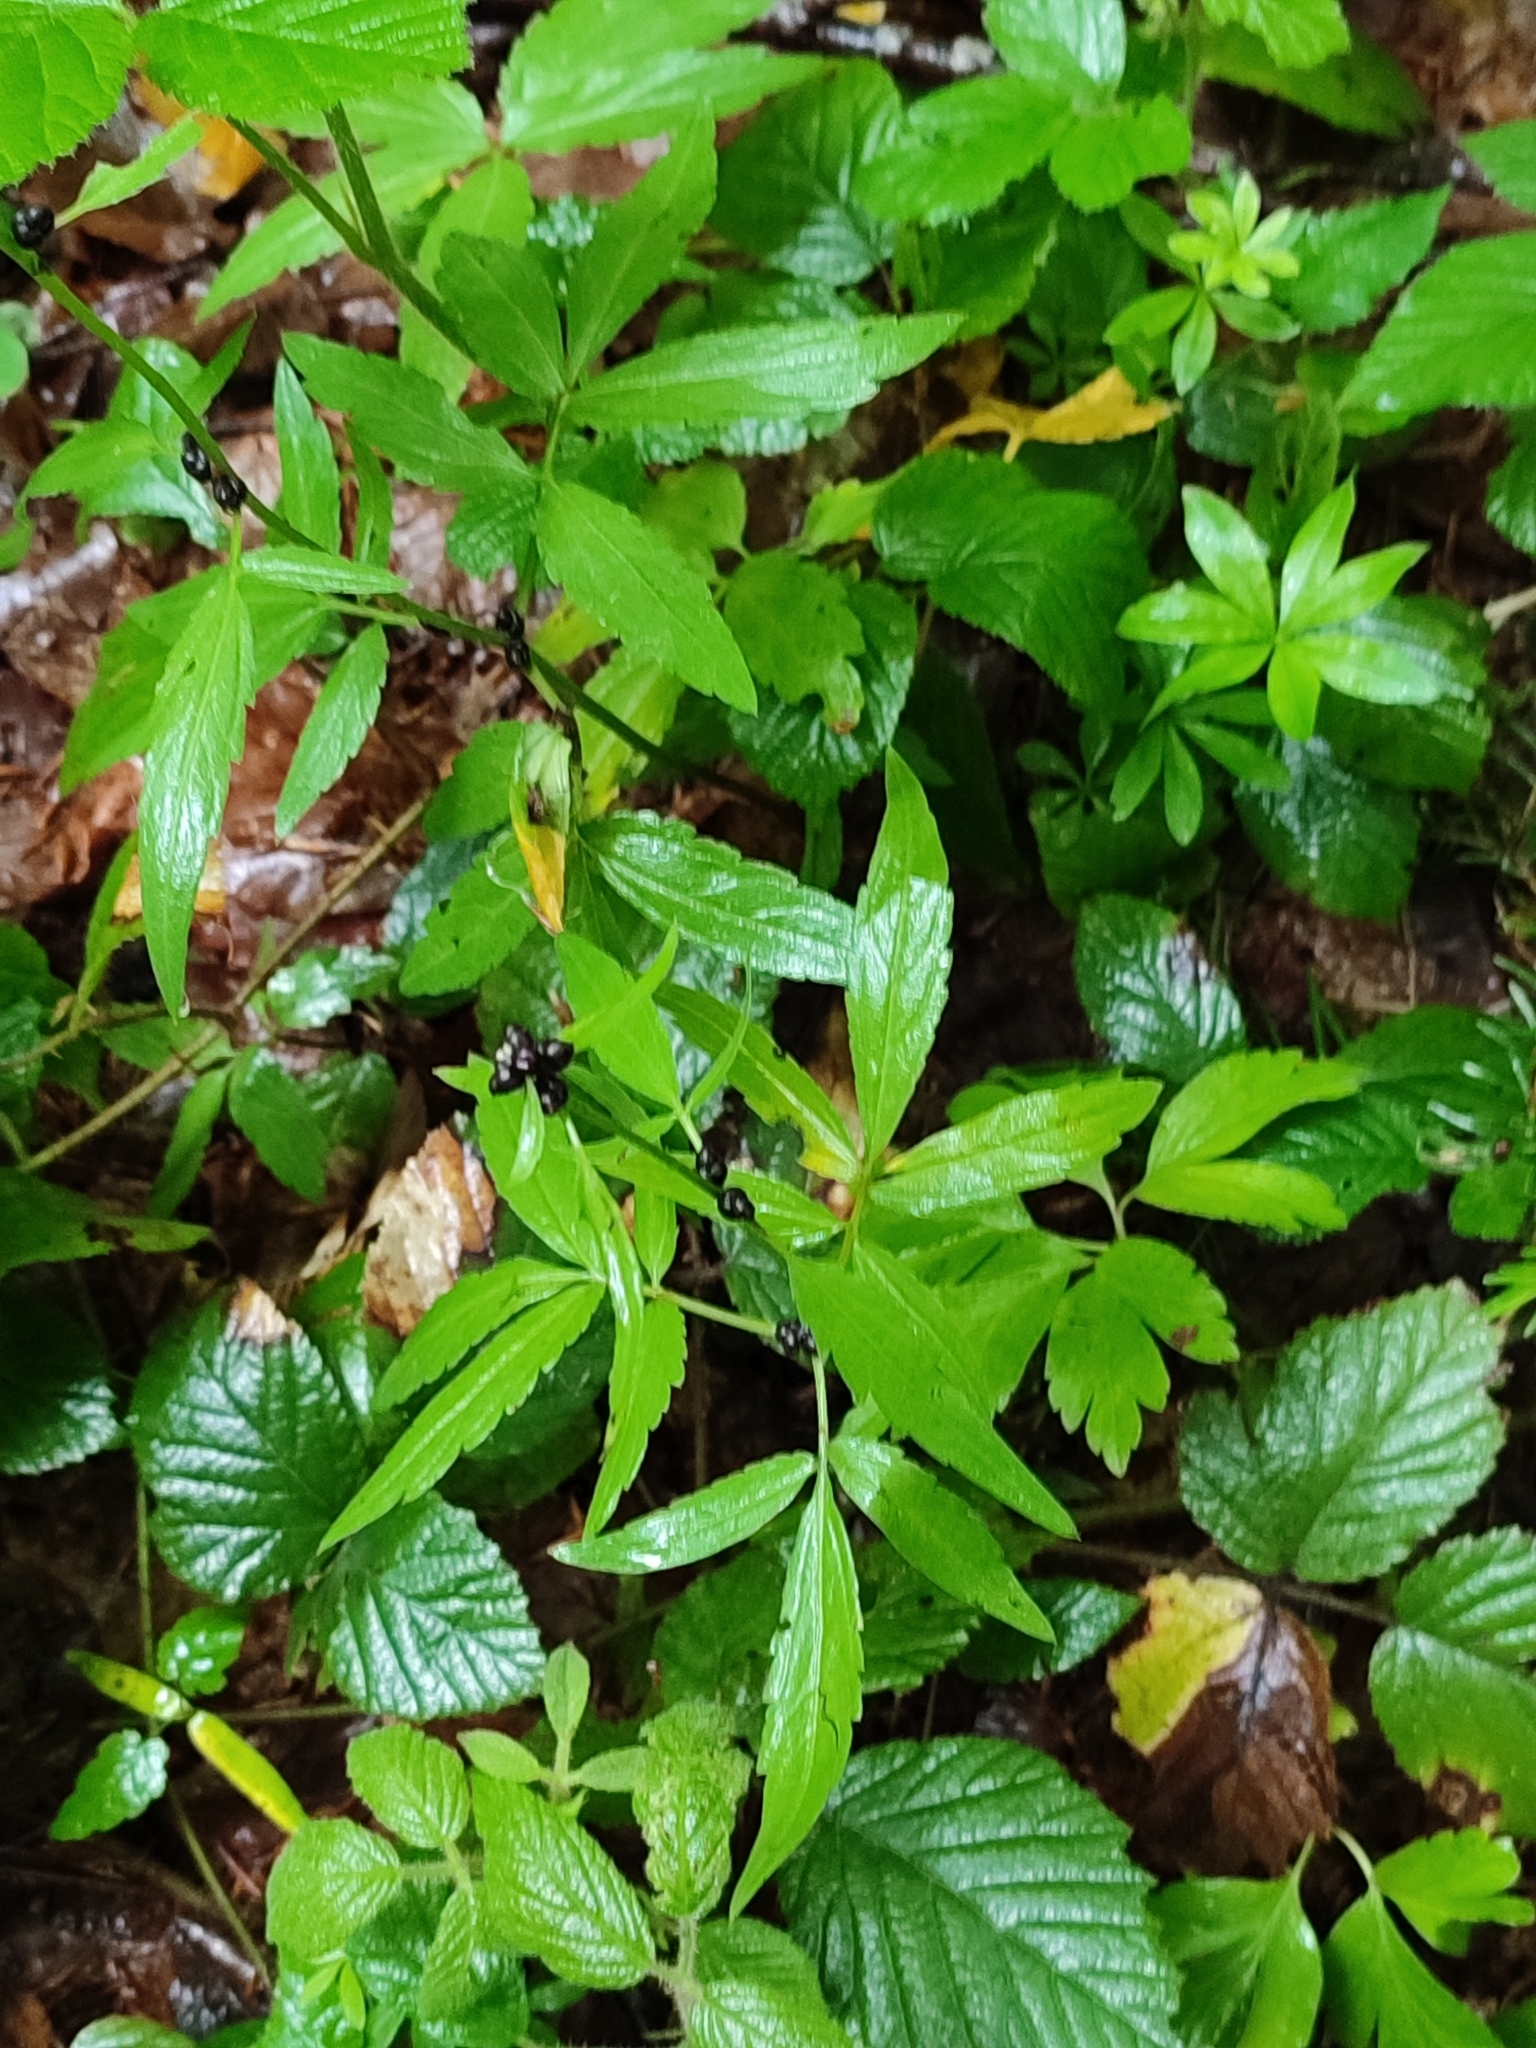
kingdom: Plantae
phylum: Tracheophyta
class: Magnoliopsida
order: Brassicales
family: Brassicaceae
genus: Cardamine
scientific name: Cardamine bulbifera
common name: Coralroot bittercress
